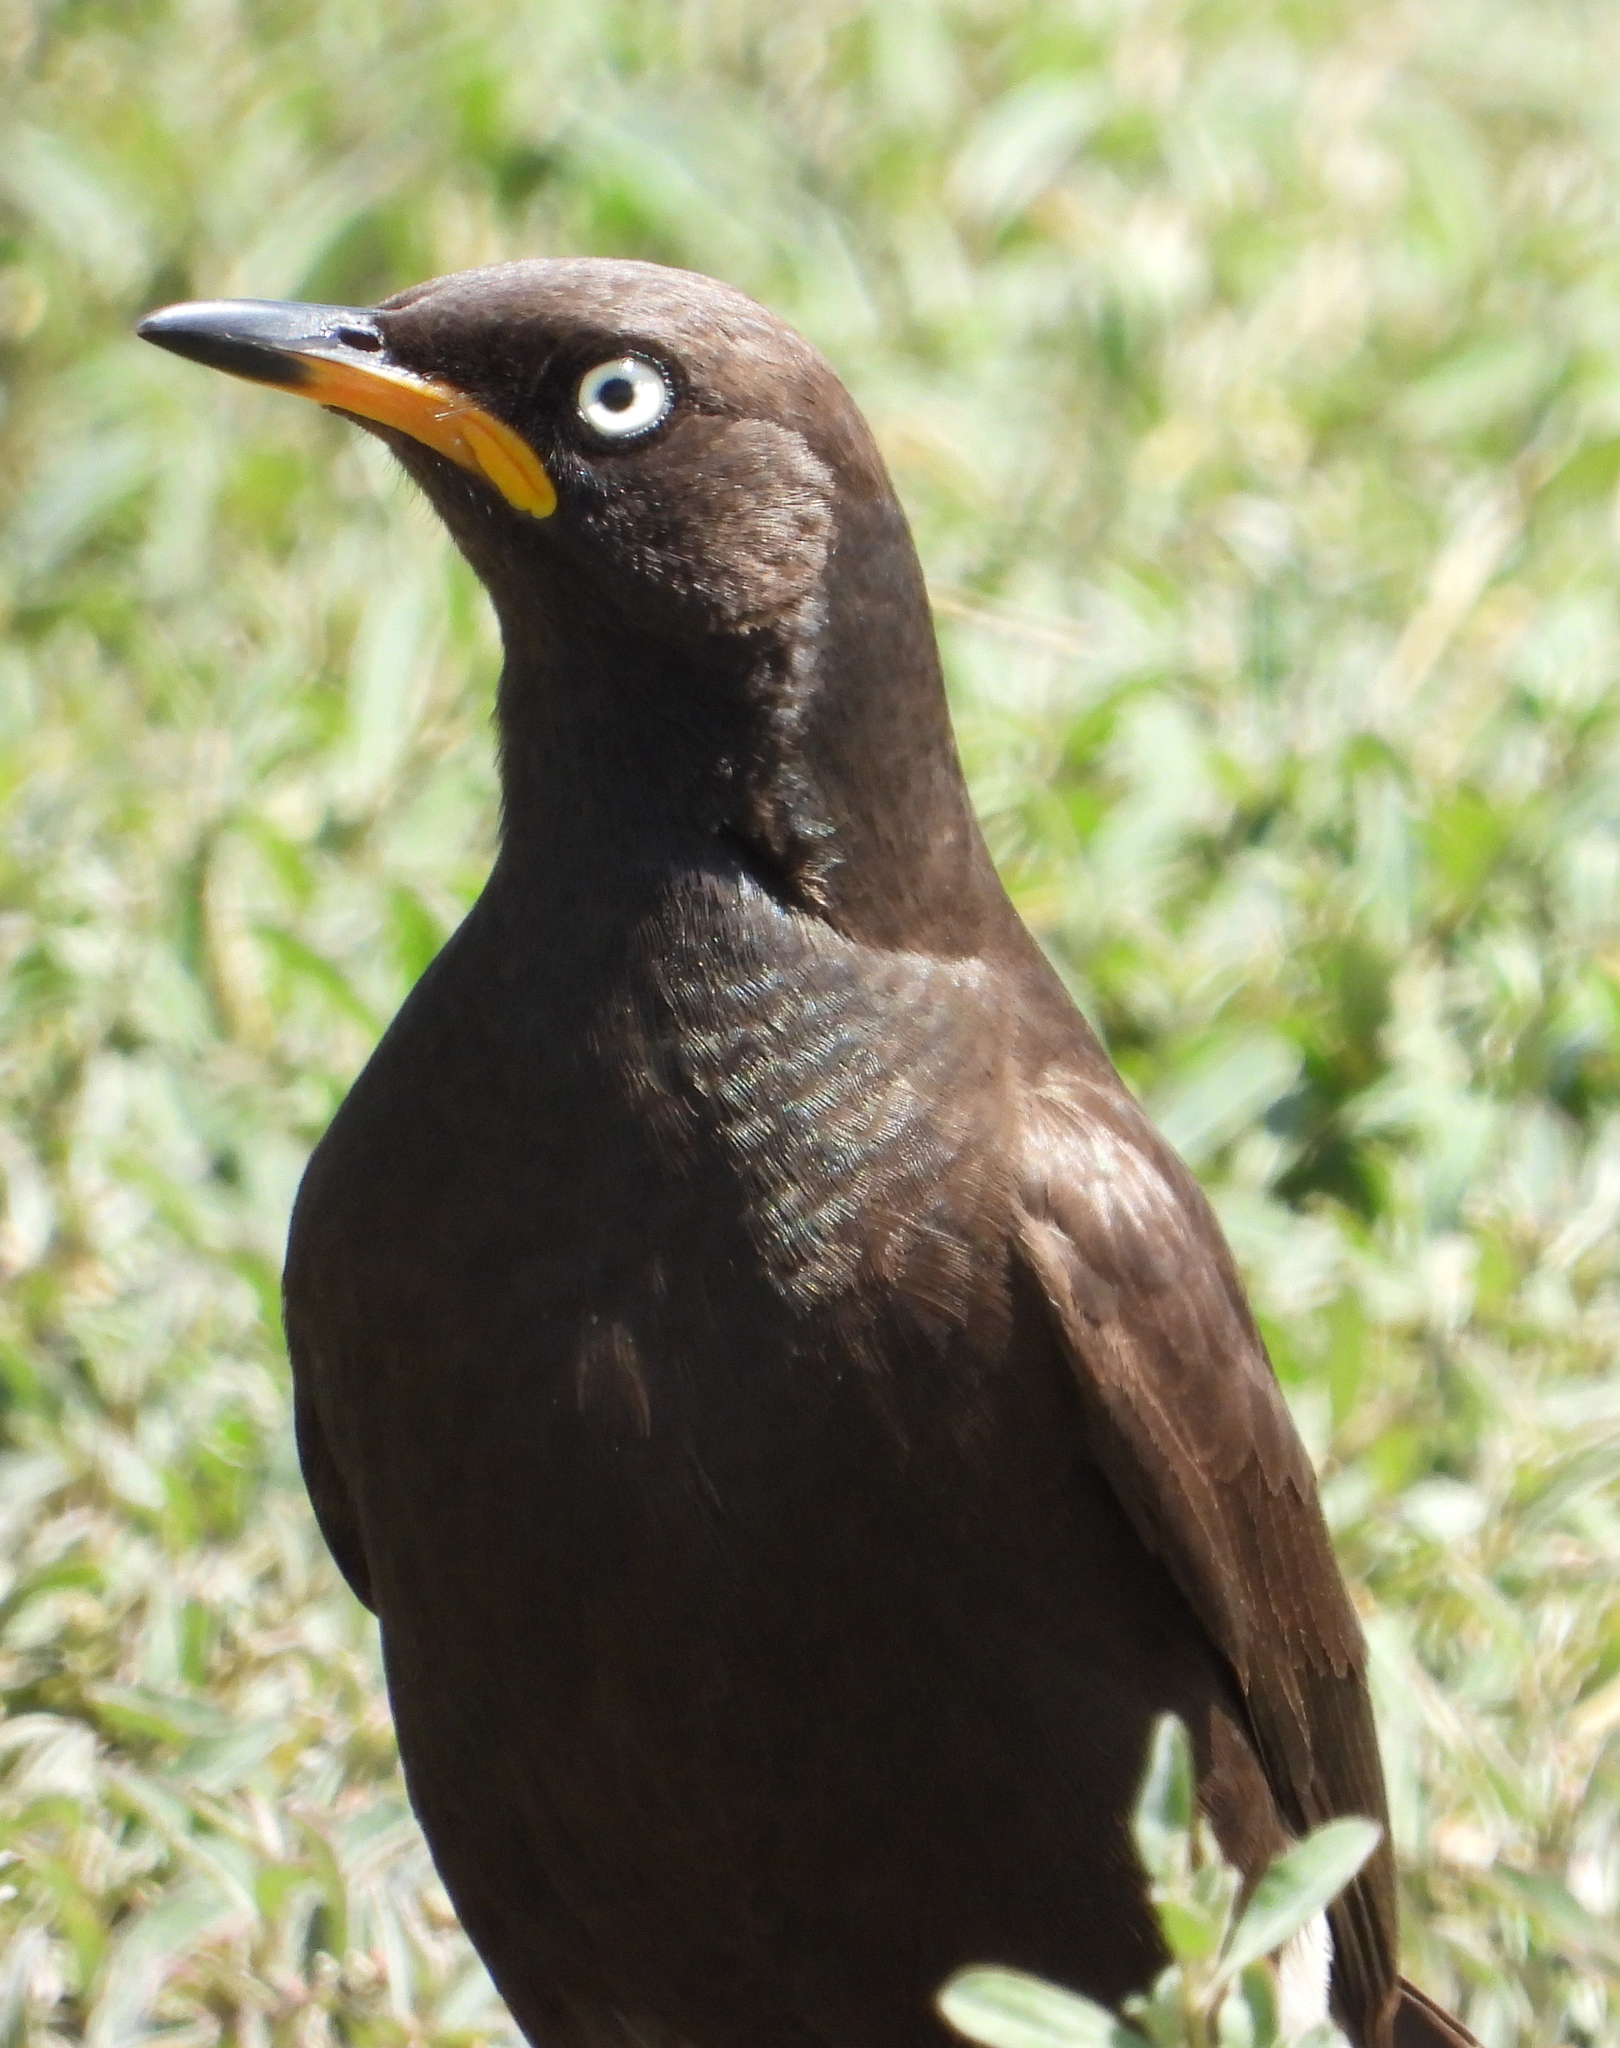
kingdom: Animalia
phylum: Chordata
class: Aves
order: Passeriformes
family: Sturnidae
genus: Lamprotornis
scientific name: Lamprotornis bicolor
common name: Pied starling
